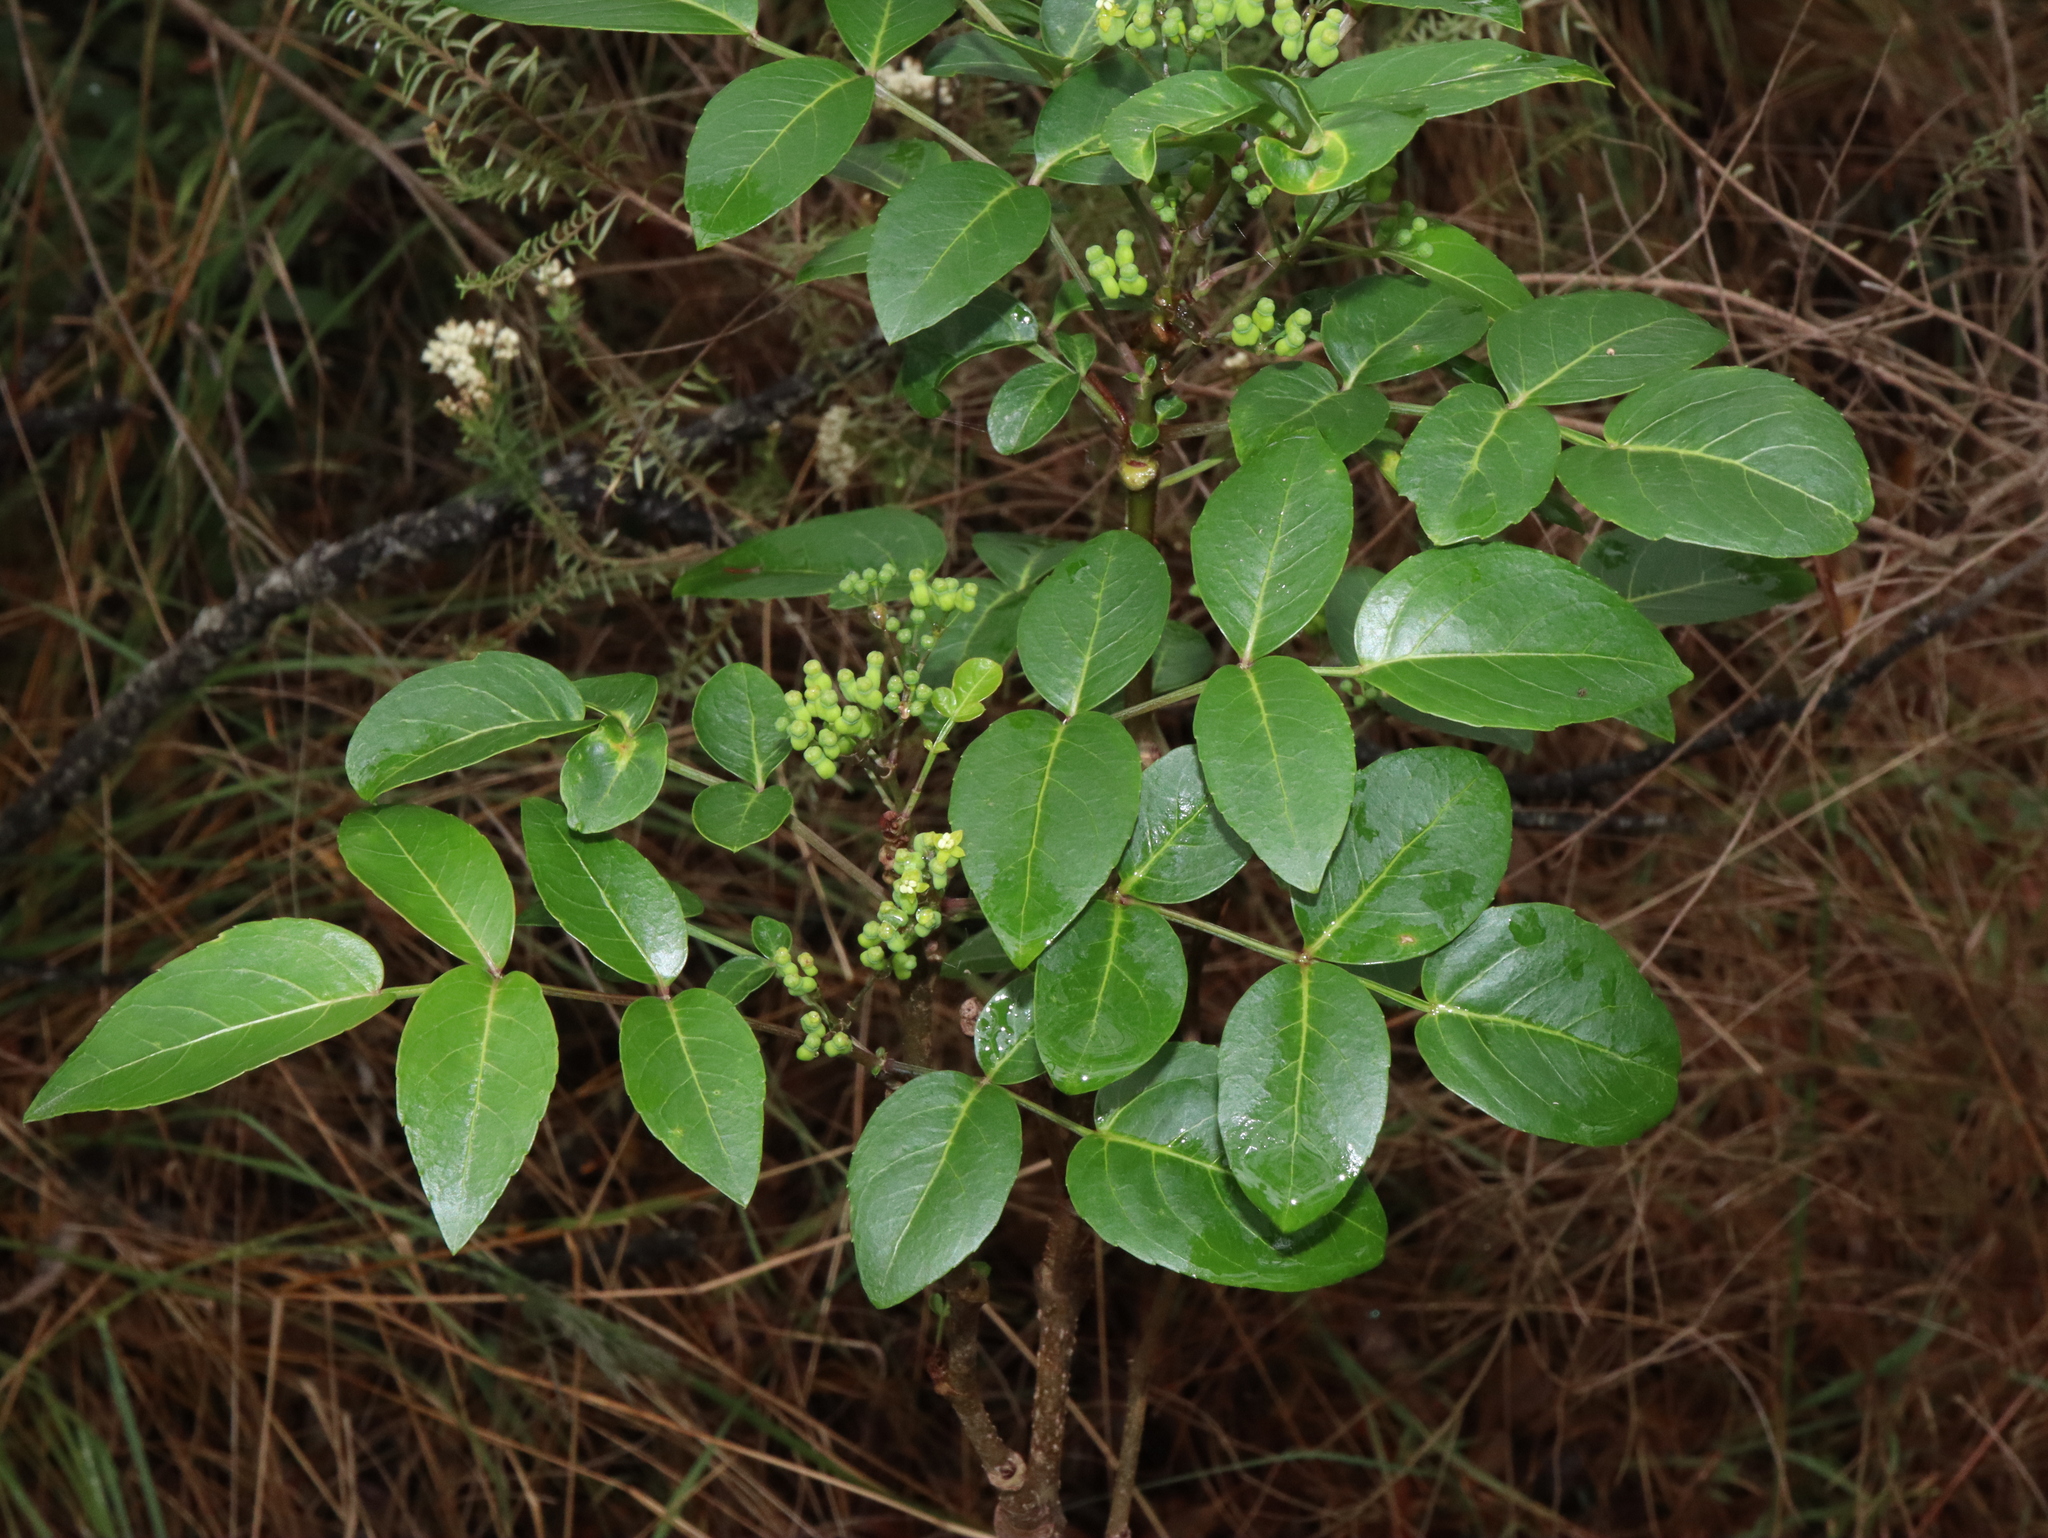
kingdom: Plantae
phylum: Tracheophyta
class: Magnoliopsida
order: Apiales
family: Araliaceae
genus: Polyscias
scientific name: Polyscias sambucifolia
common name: Elderberry-ash
